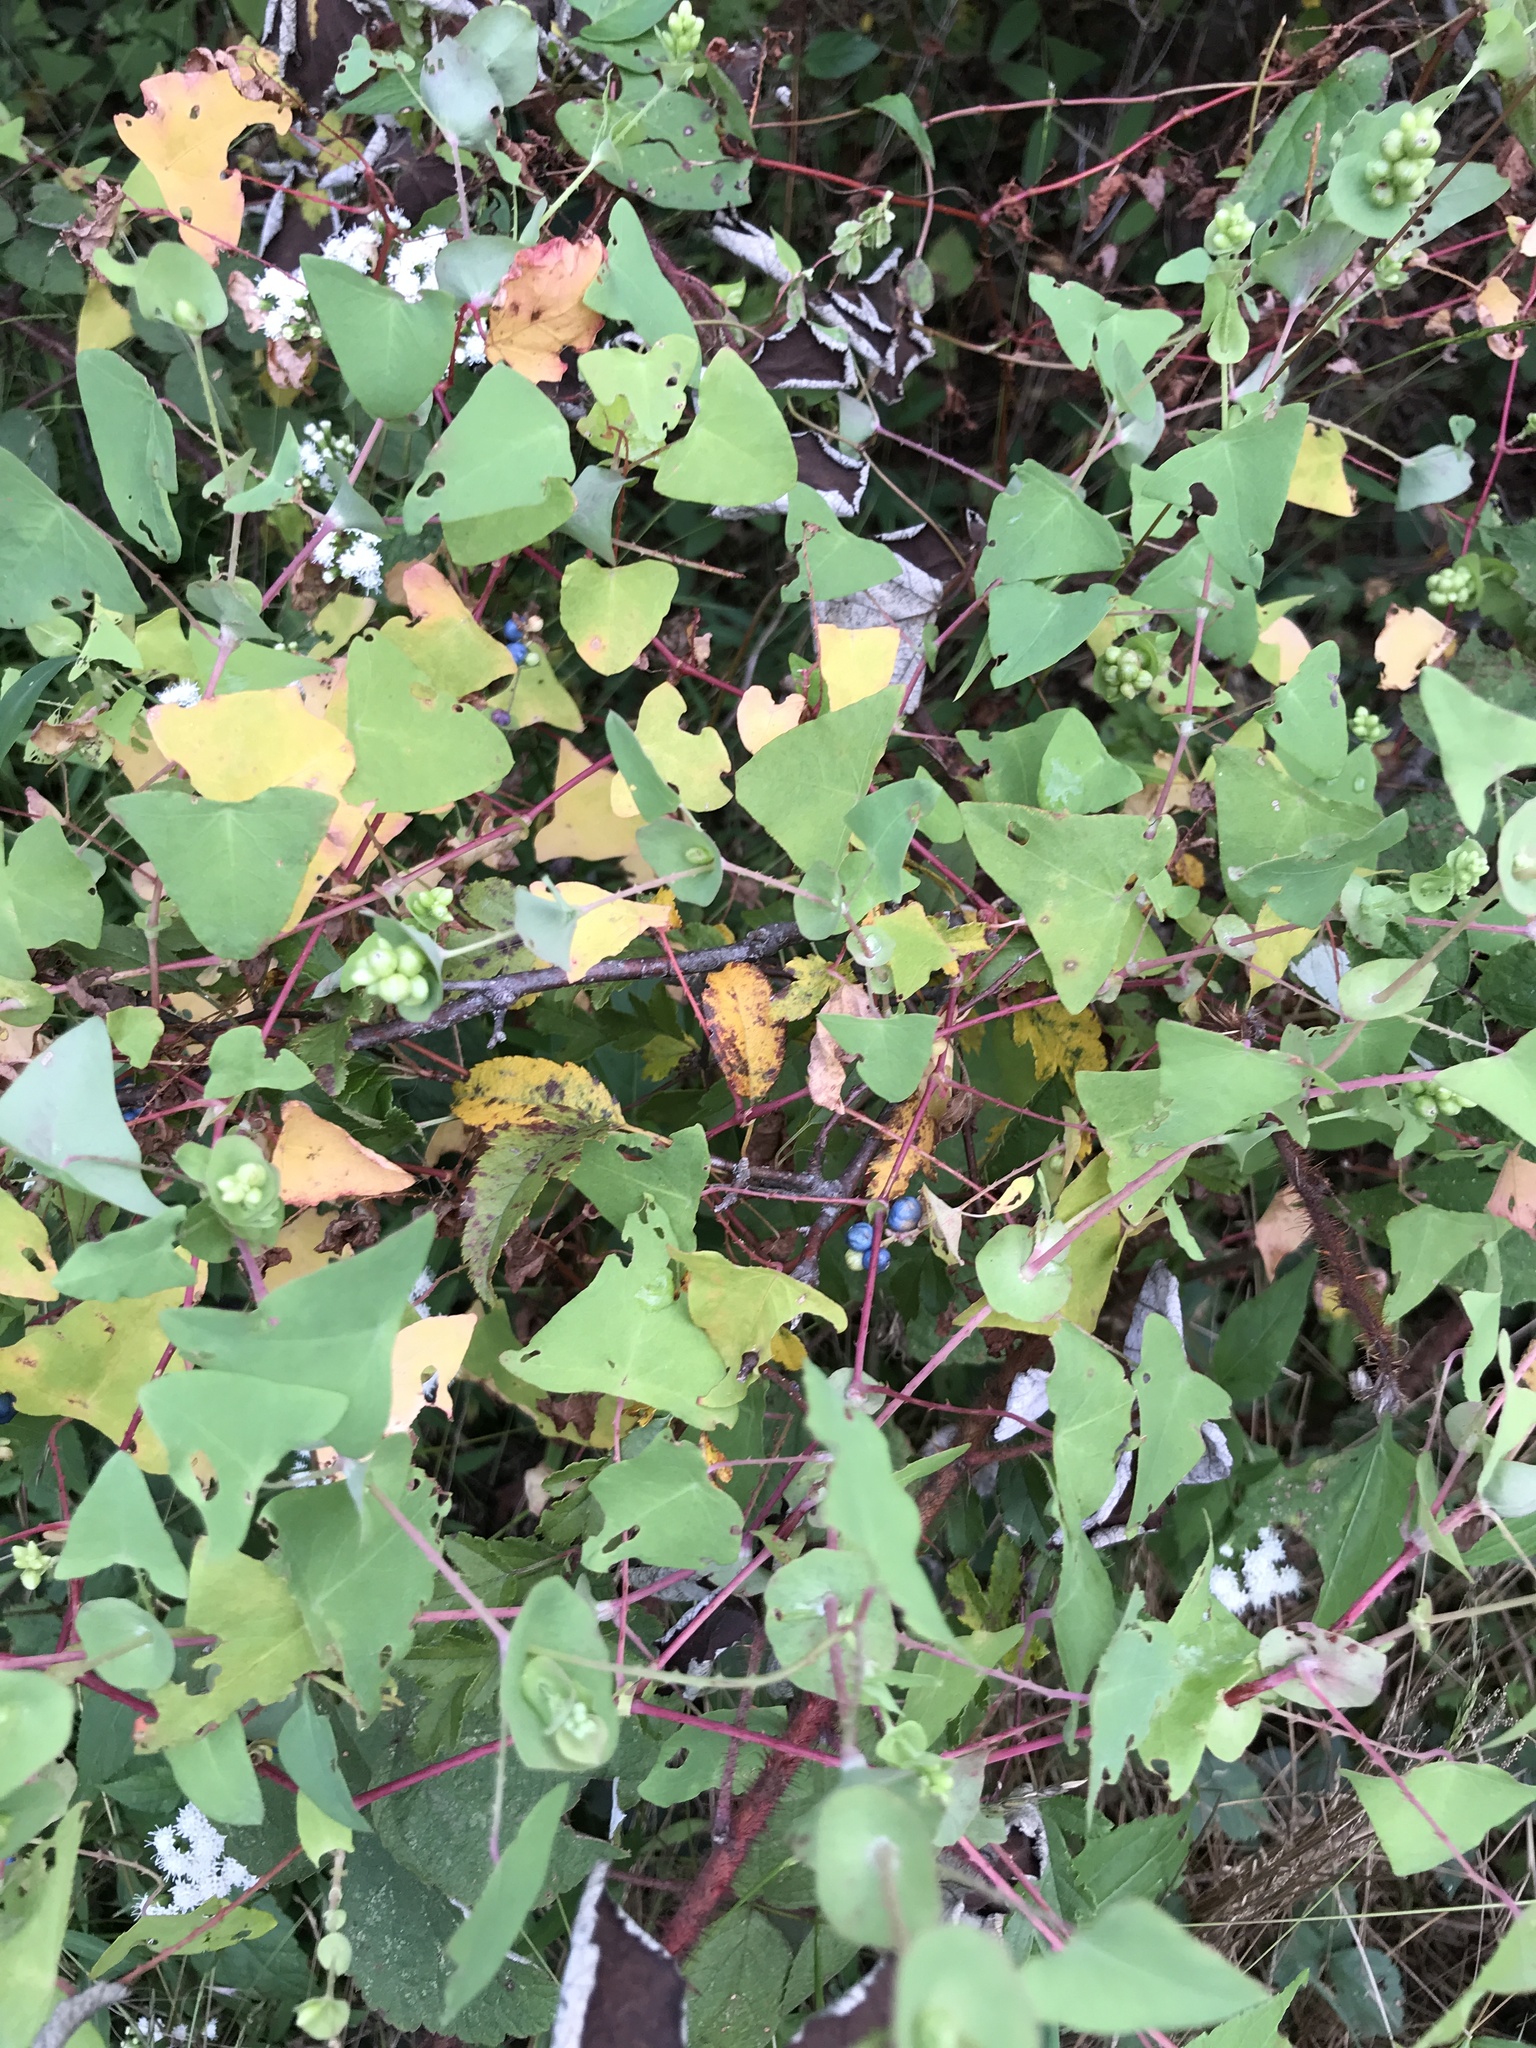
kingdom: Plantae
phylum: Tracheophyta
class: Magnoliopsida
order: Caryophyllales
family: Polygonaceae
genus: Persicaria
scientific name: Persicaria perfoliata
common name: Asiatic tearthumb
